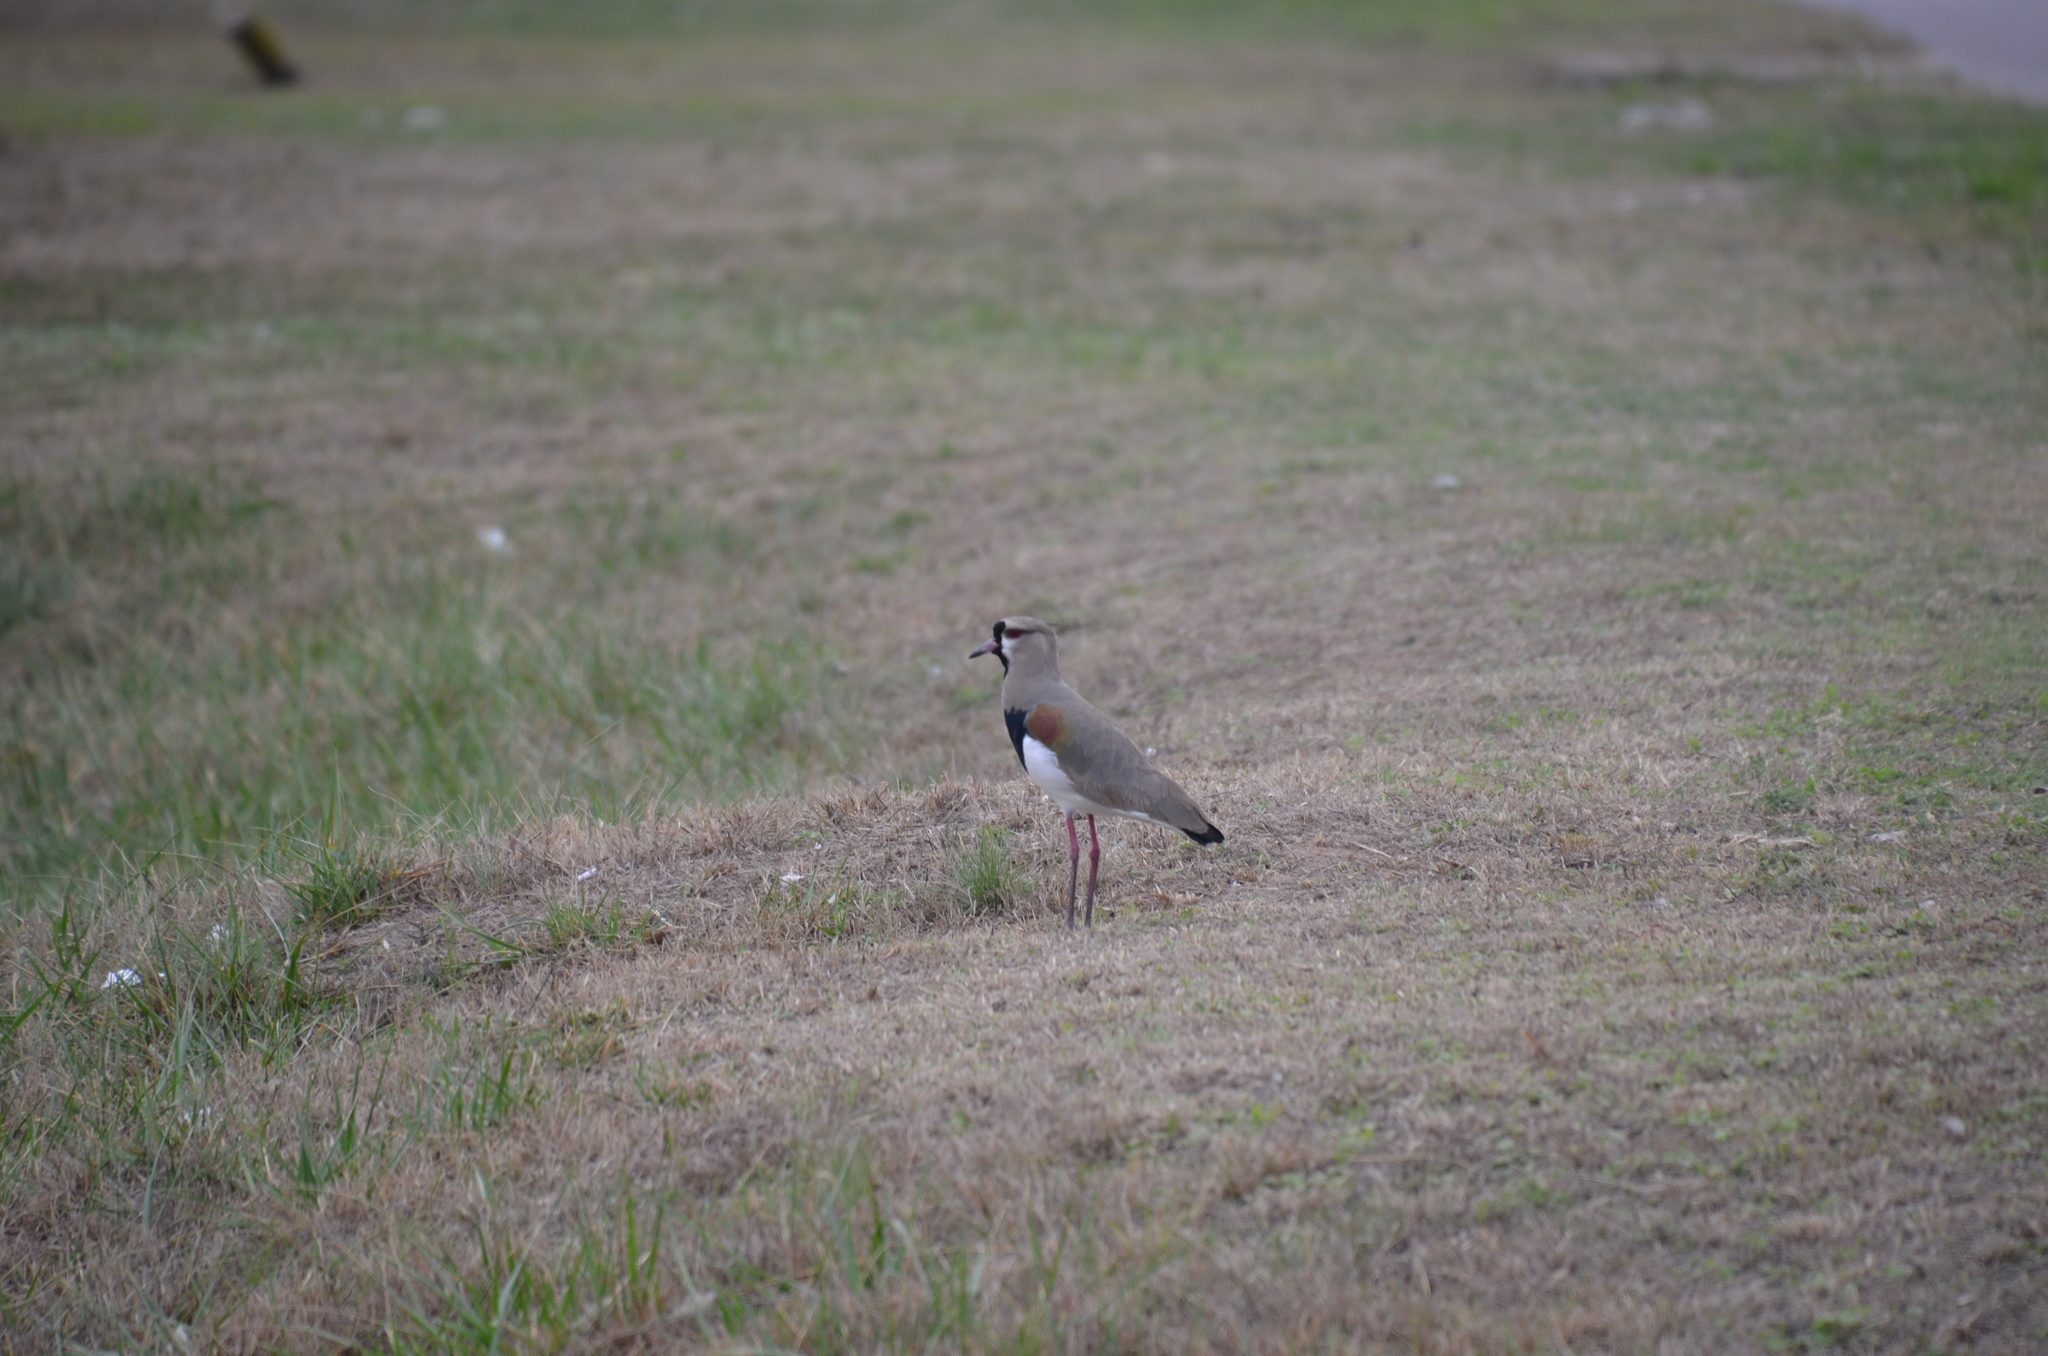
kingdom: Animalia
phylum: Chordata
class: Aves
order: Charadriiformes
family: Charadriidae
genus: Vanellus
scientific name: Vanellus chilensis
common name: Southern lapwing
